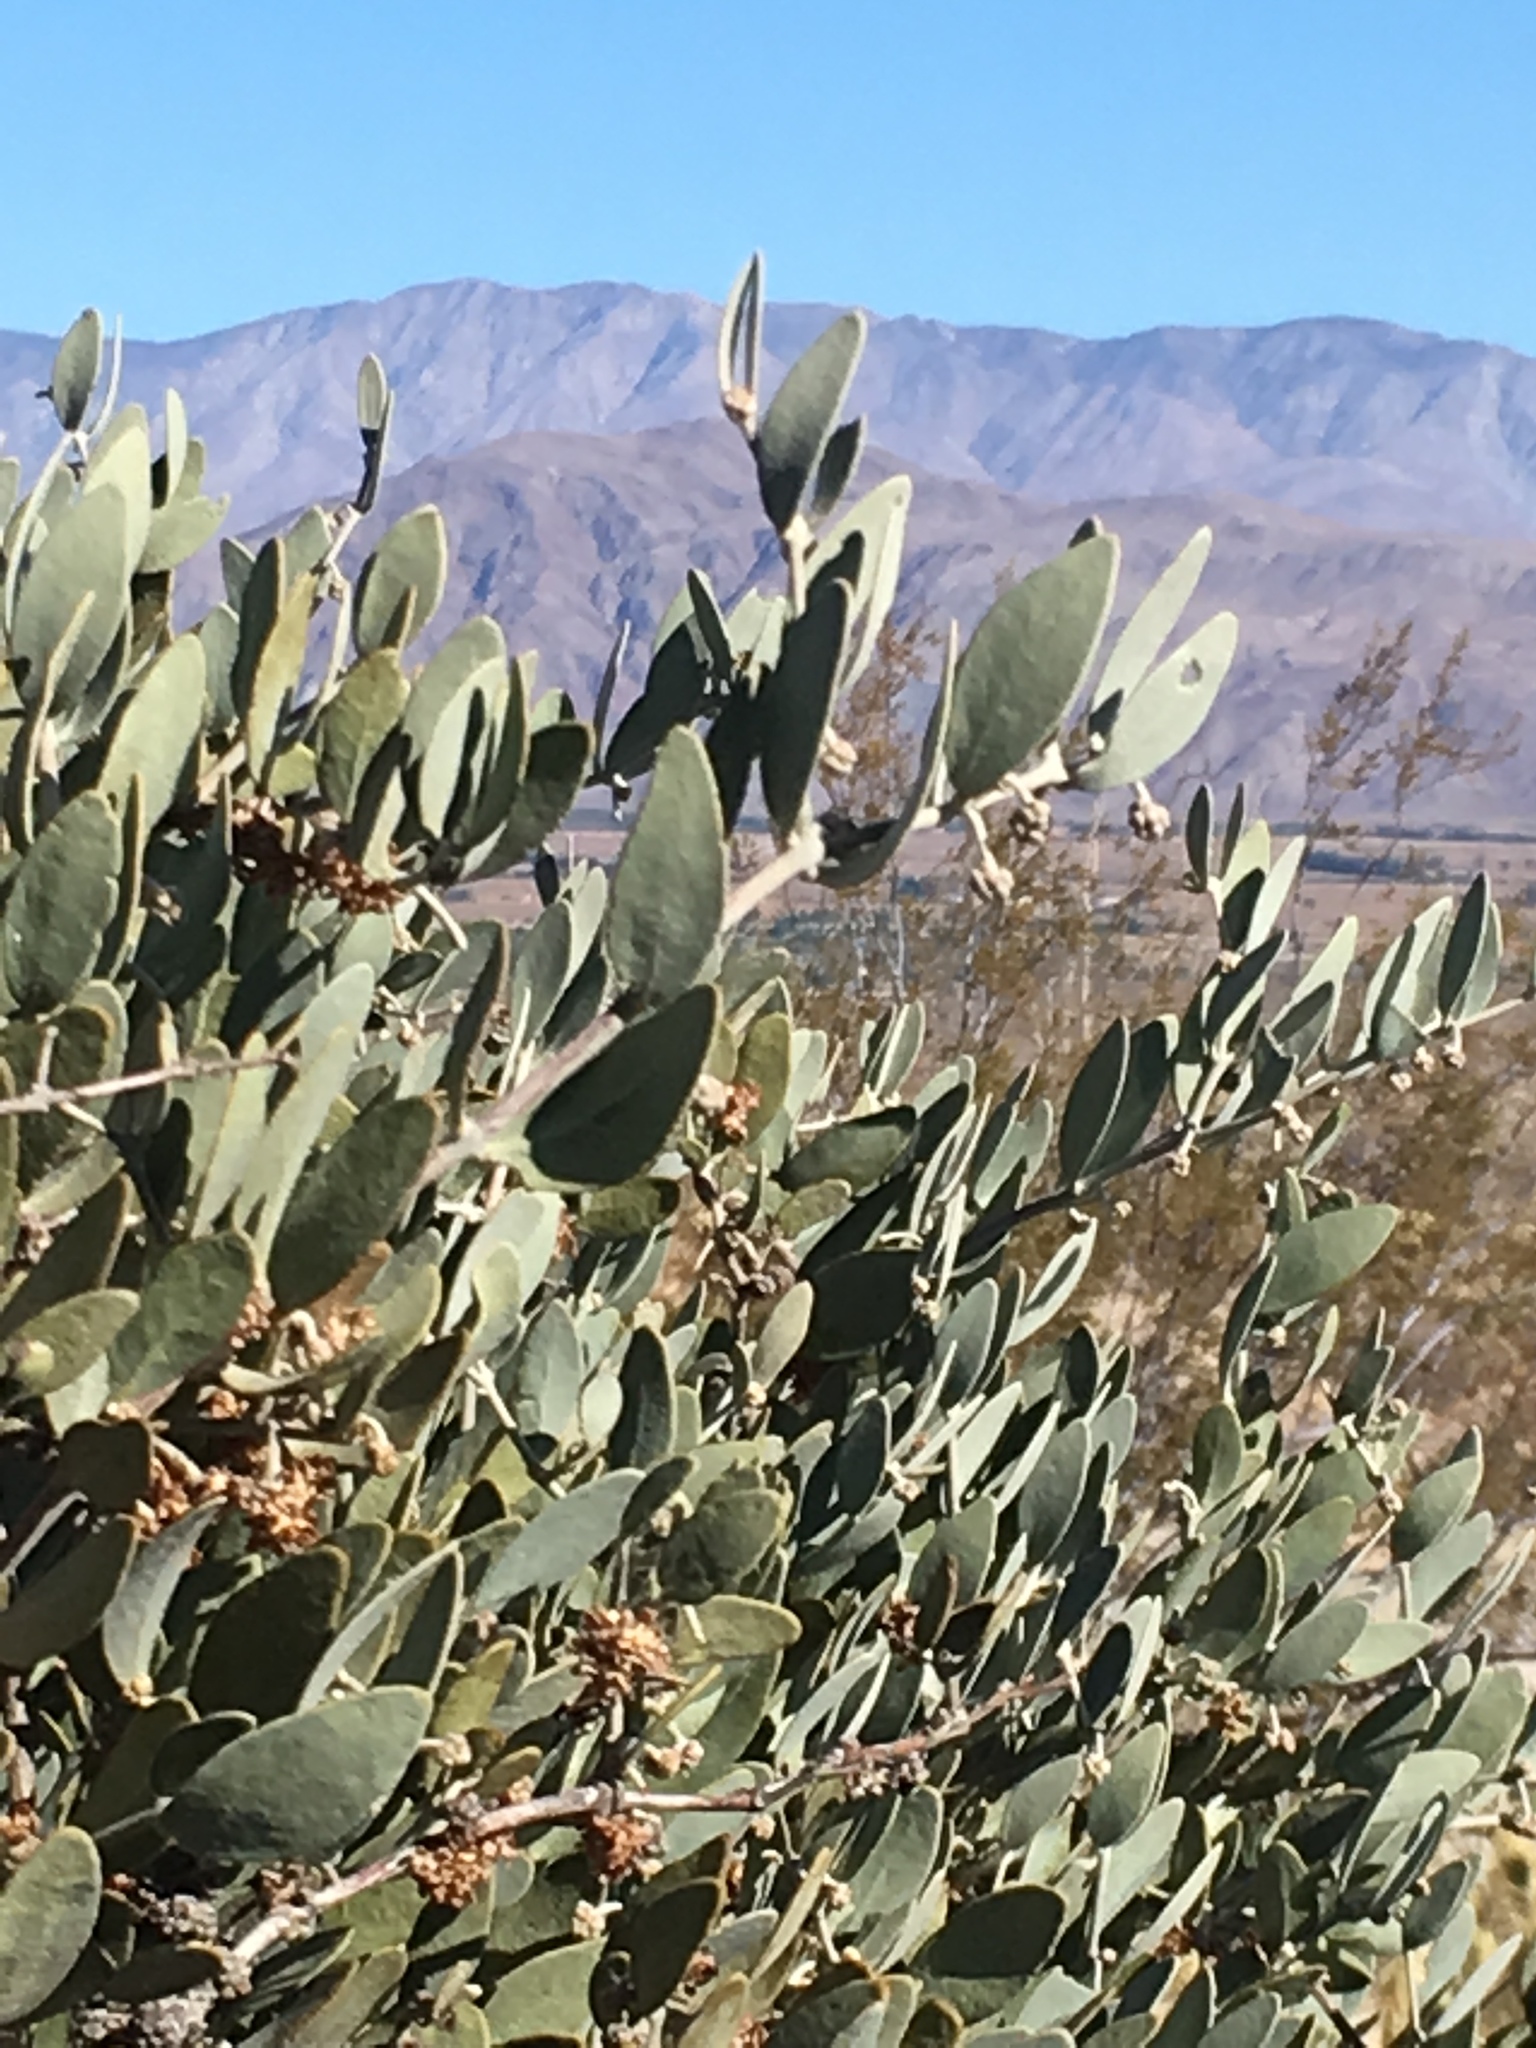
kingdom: Plantae
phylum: Tracheophyta
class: Magnoliopsida
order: Caryophyllales
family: Simmondsiaceae
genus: Simmondsia
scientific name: Simmondsia chinensis
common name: Jojoba
